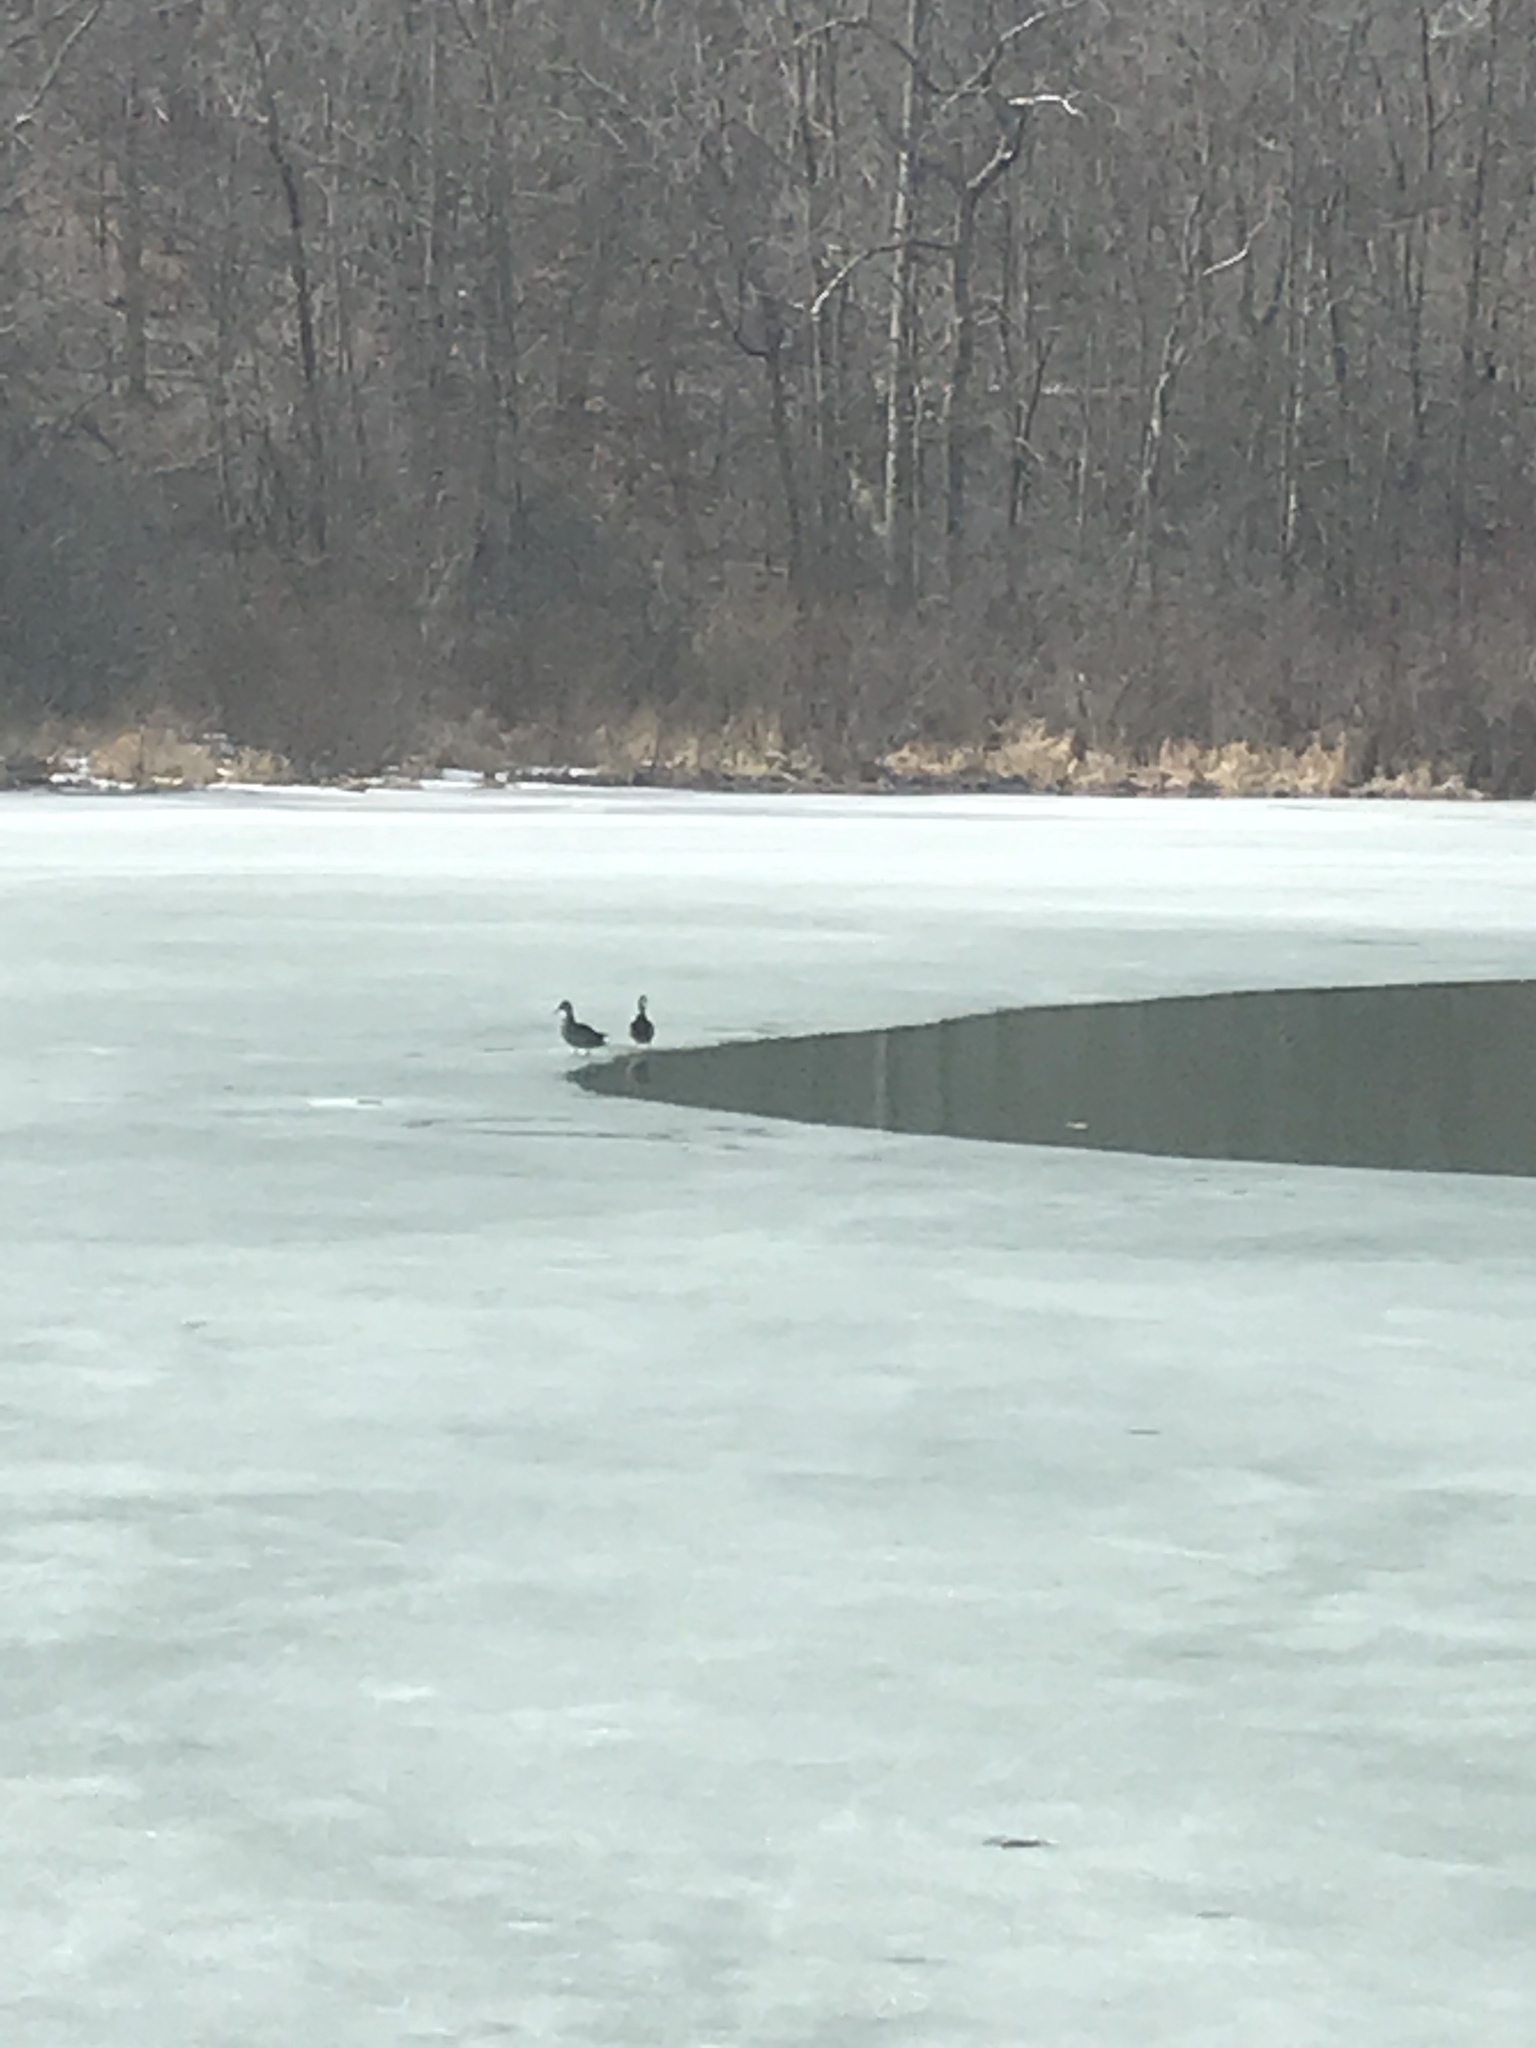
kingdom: Animalia
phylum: Chordata
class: Aves
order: Anseriformes
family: Anatidae
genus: Anas
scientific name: Anas platyrhynchos
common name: Mallard
